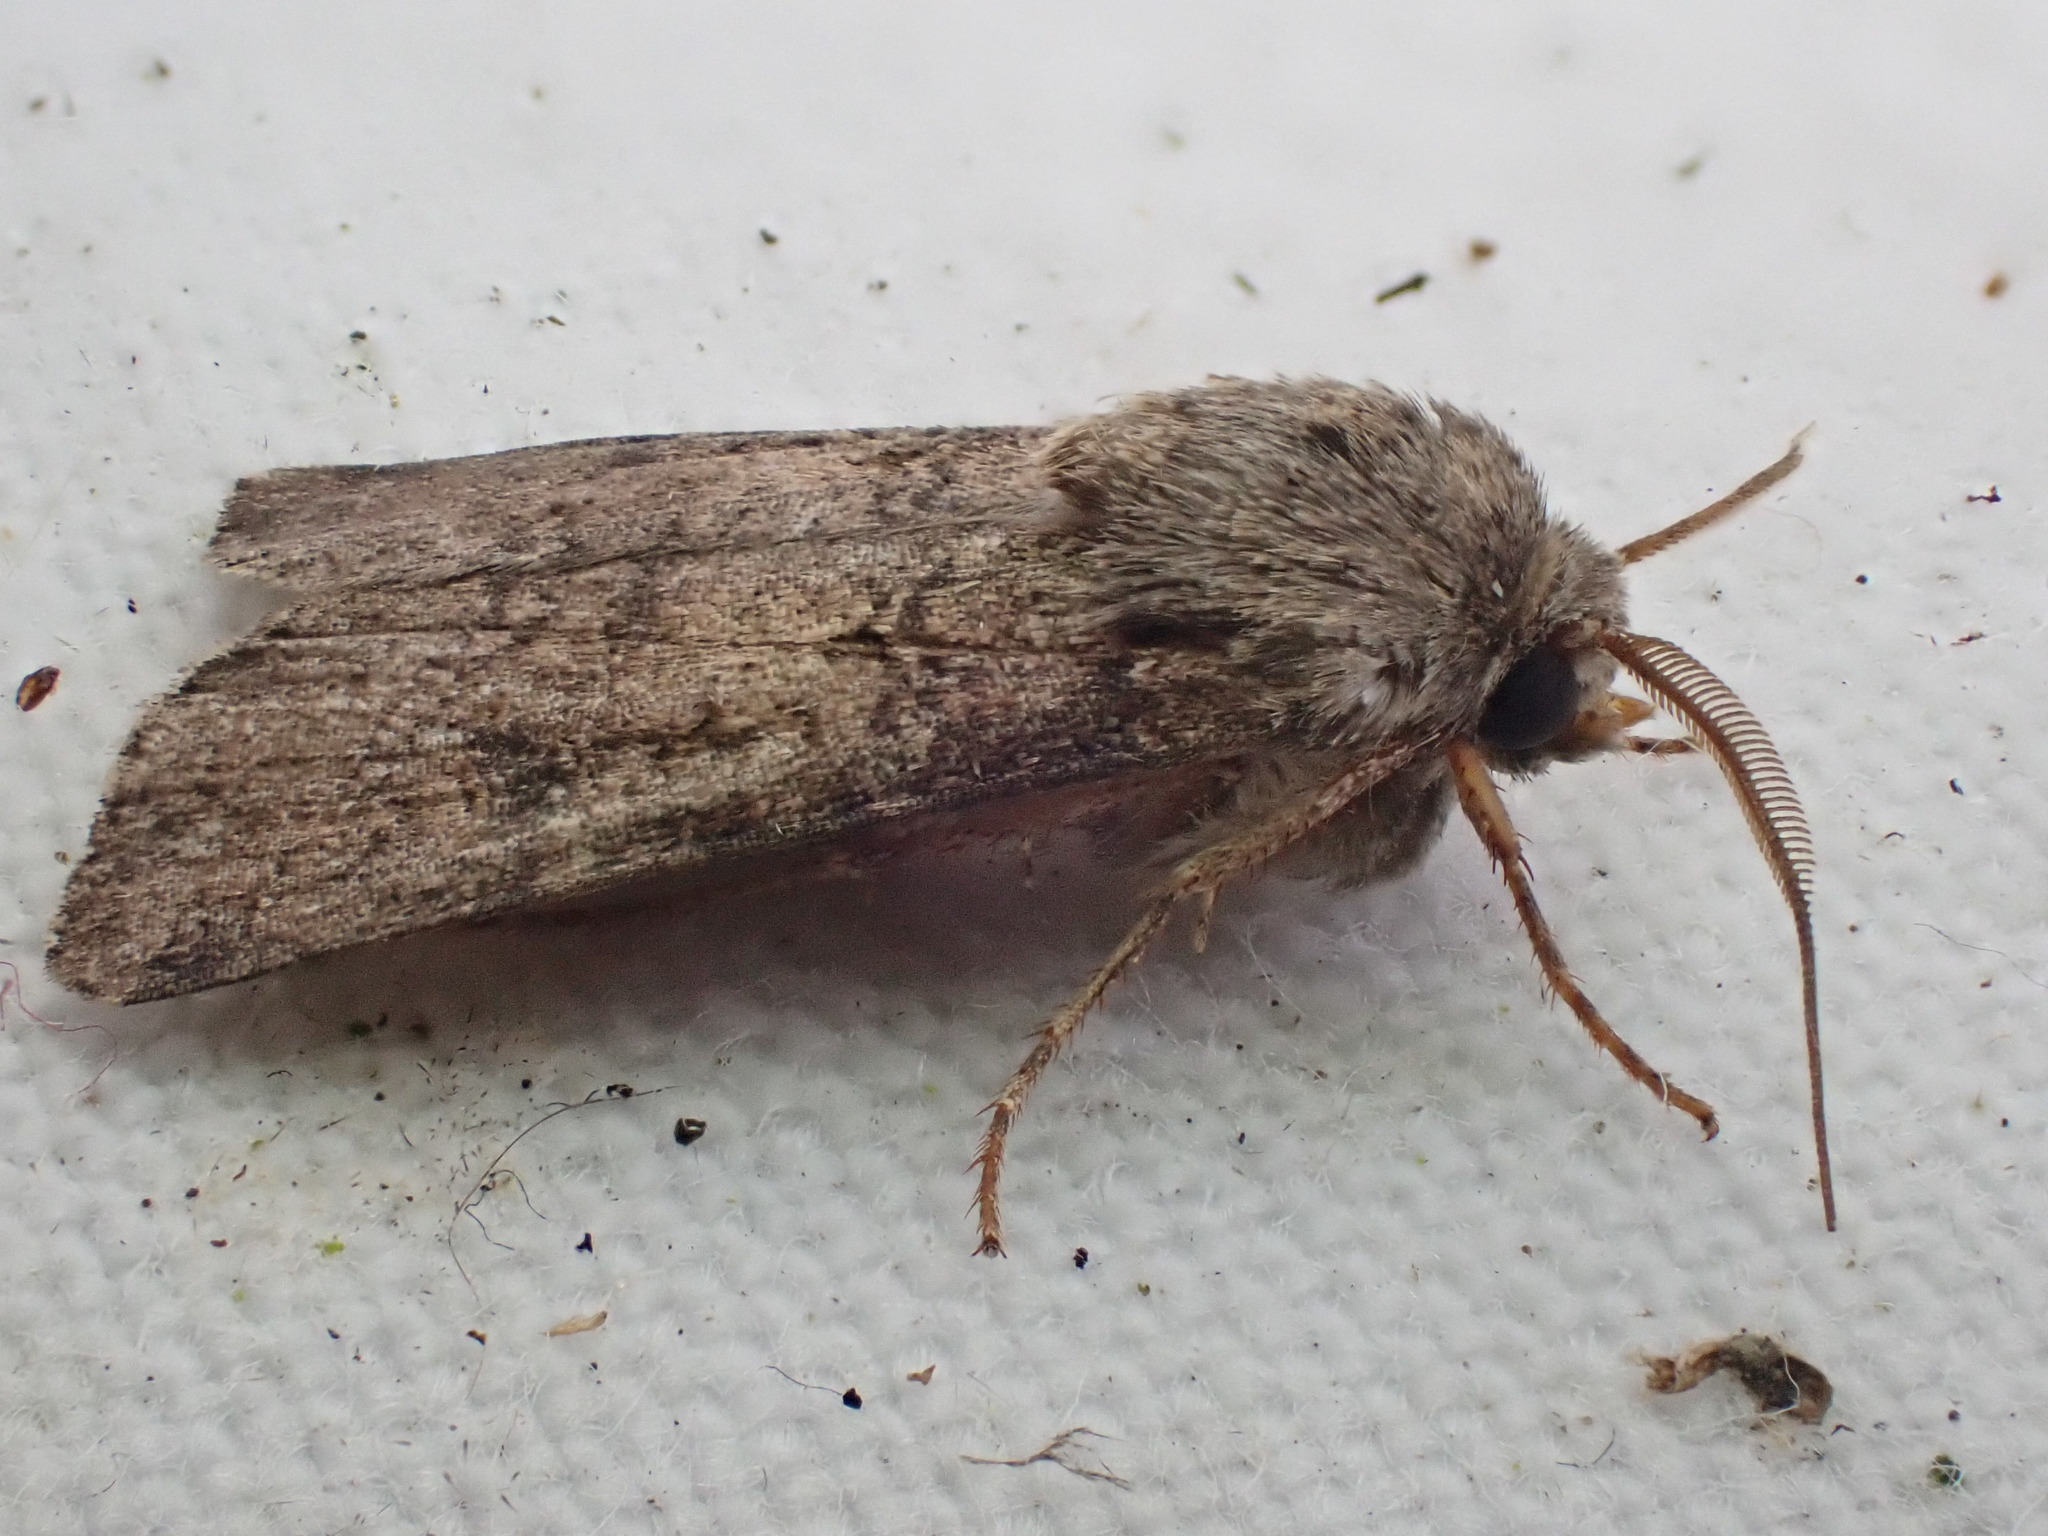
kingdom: Animalia
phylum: Arthropoda
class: Insecta
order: Lepidoptera
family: Noctuidae
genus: Agrotis
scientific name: Agrotis segetum
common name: Turnip moth
